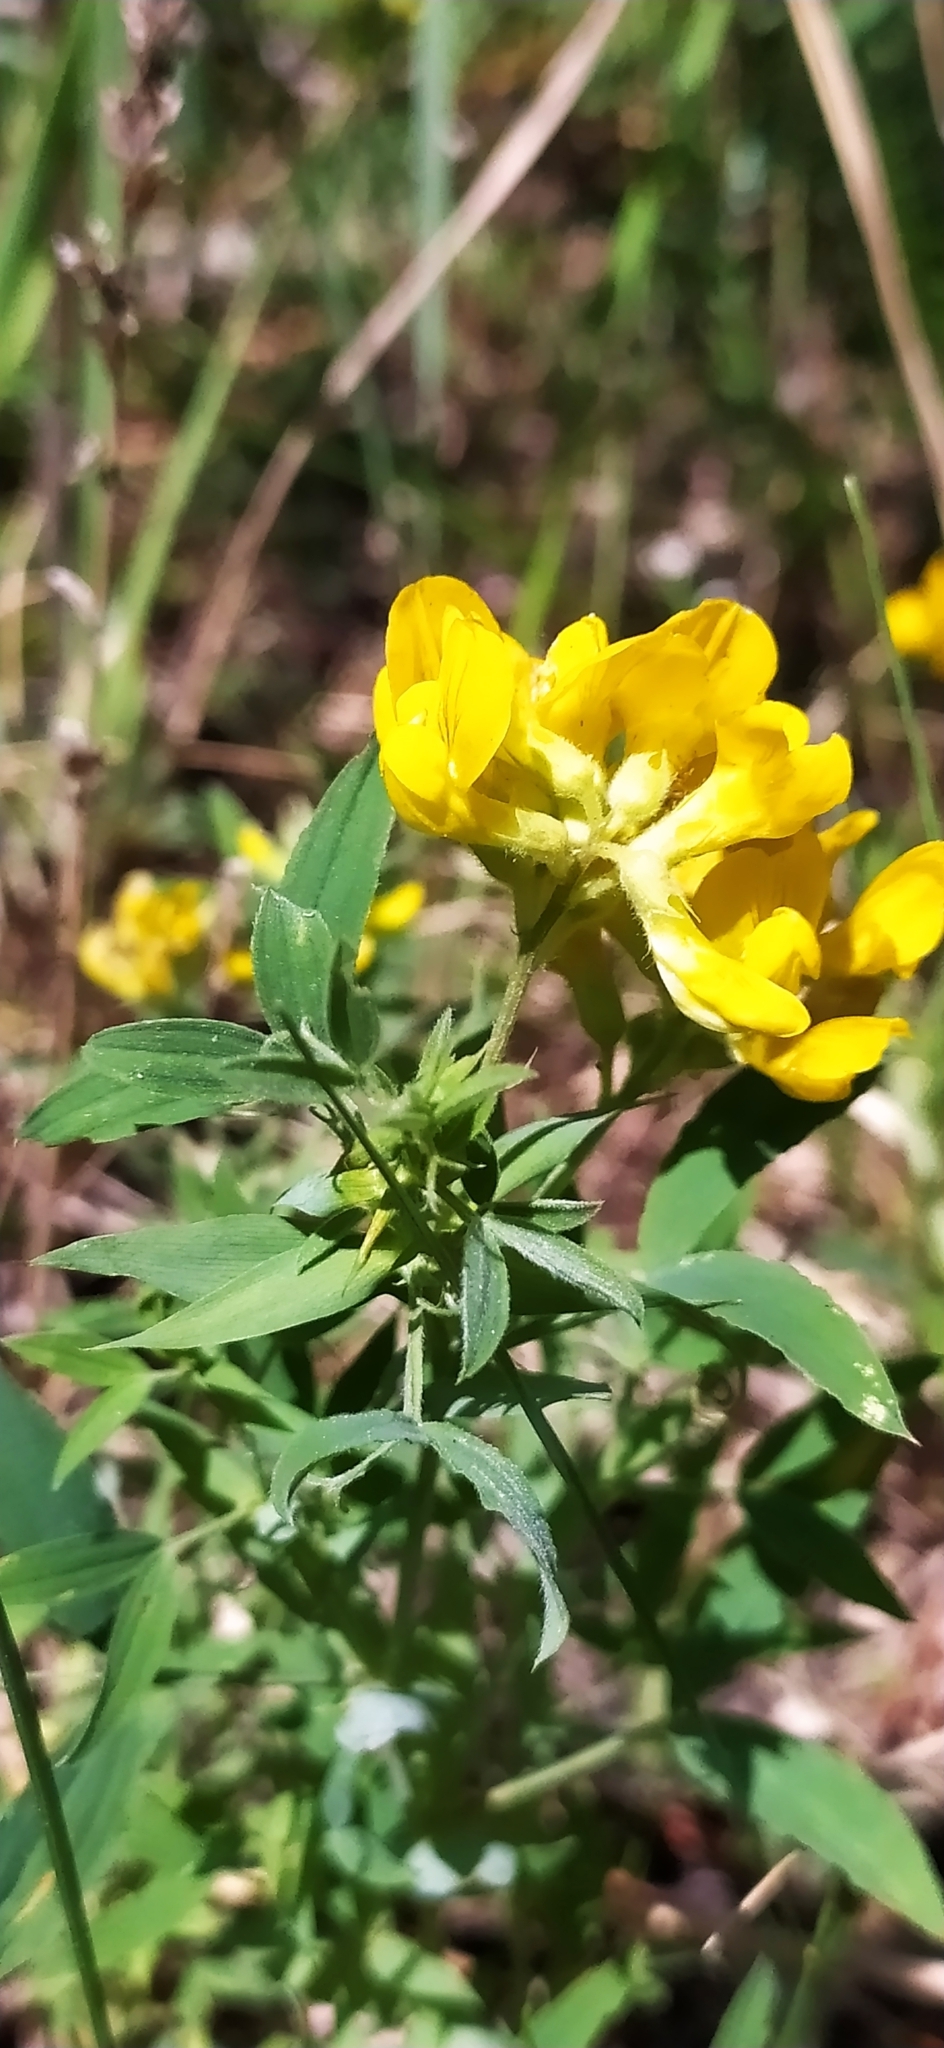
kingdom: Plantae
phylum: Tracheophyta
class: Magnoliopsida
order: Fabales
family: Fabaceae
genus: Lathyrus
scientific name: Lathyrus pratensis
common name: Meadow vetchling
